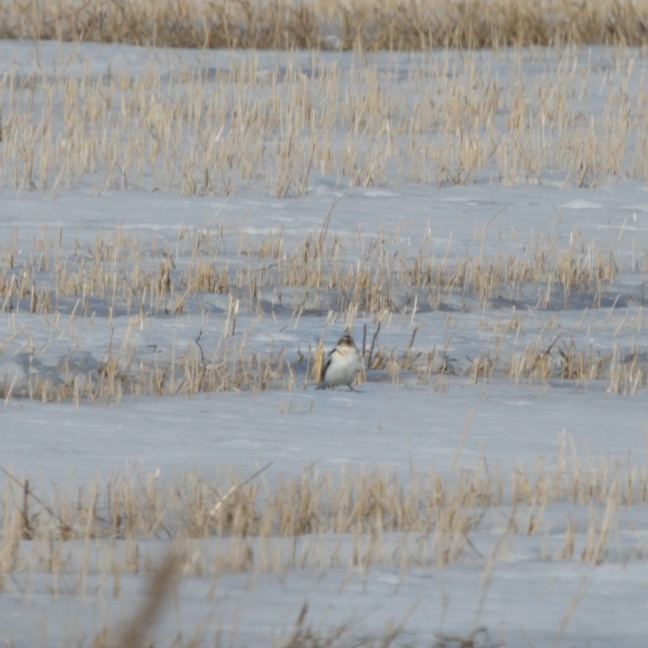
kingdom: Animalia
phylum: Chordata
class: Aves
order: Passeriformes
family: Calcariidae
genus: Plectrophenax
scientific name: Plectrophenax nivalis
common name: Snow bunting
